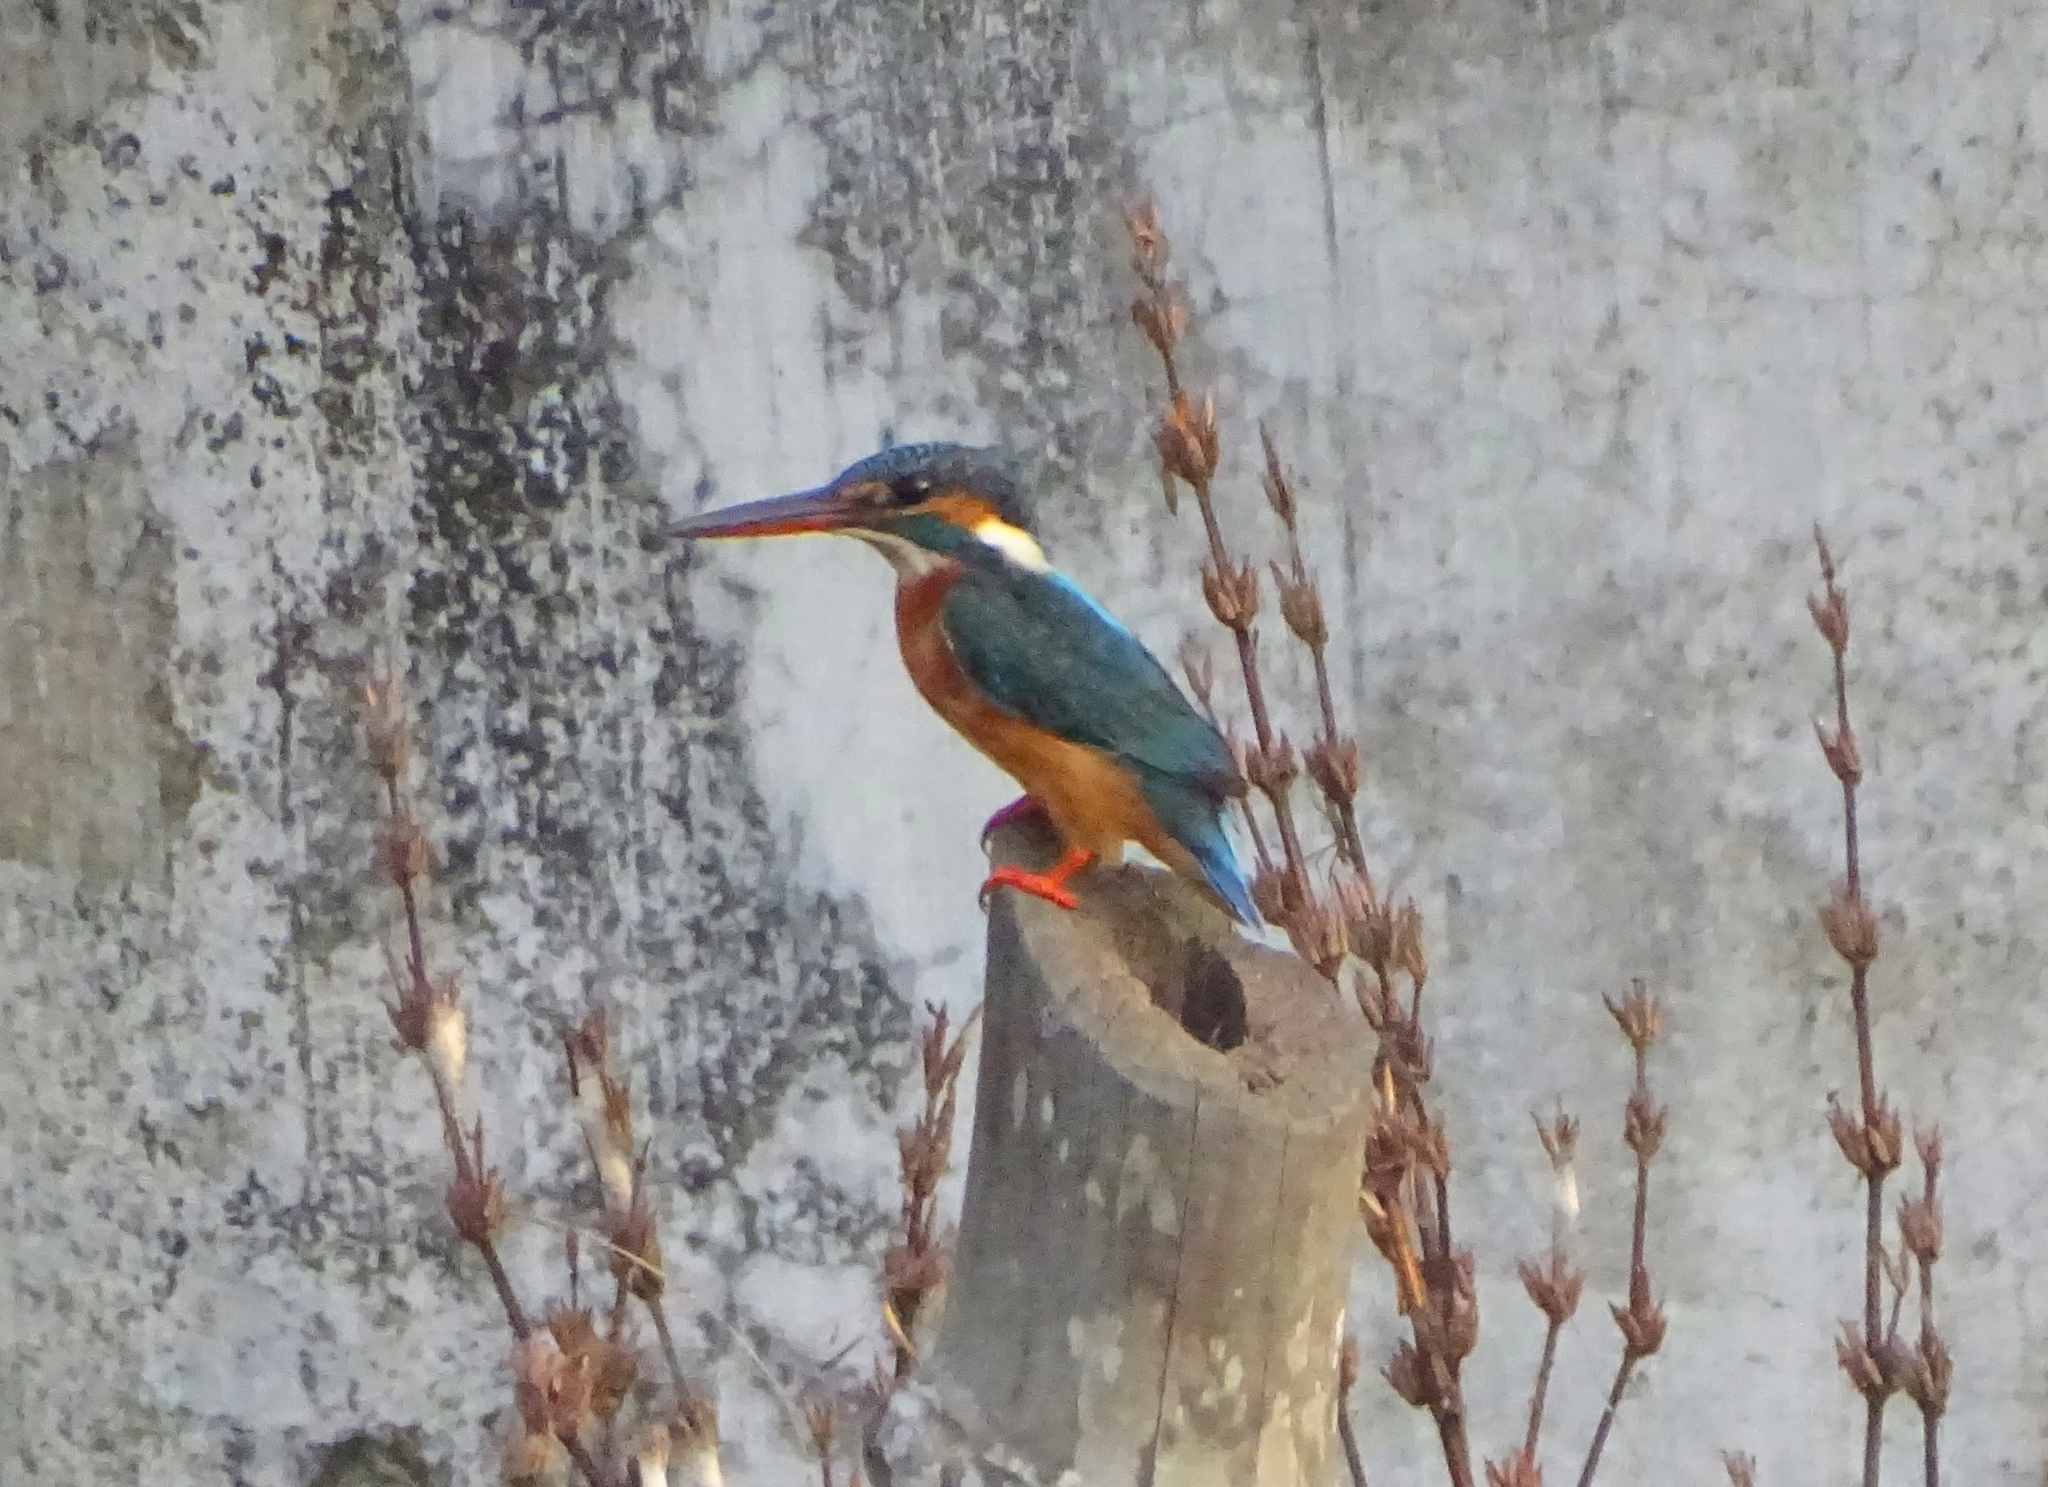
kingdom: Animalia
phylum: Chordata
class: Aves
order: Coraciiformes
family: Alcedinidae
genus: Alcedo
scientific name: Alcedo atthis
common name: Common kingfisher
